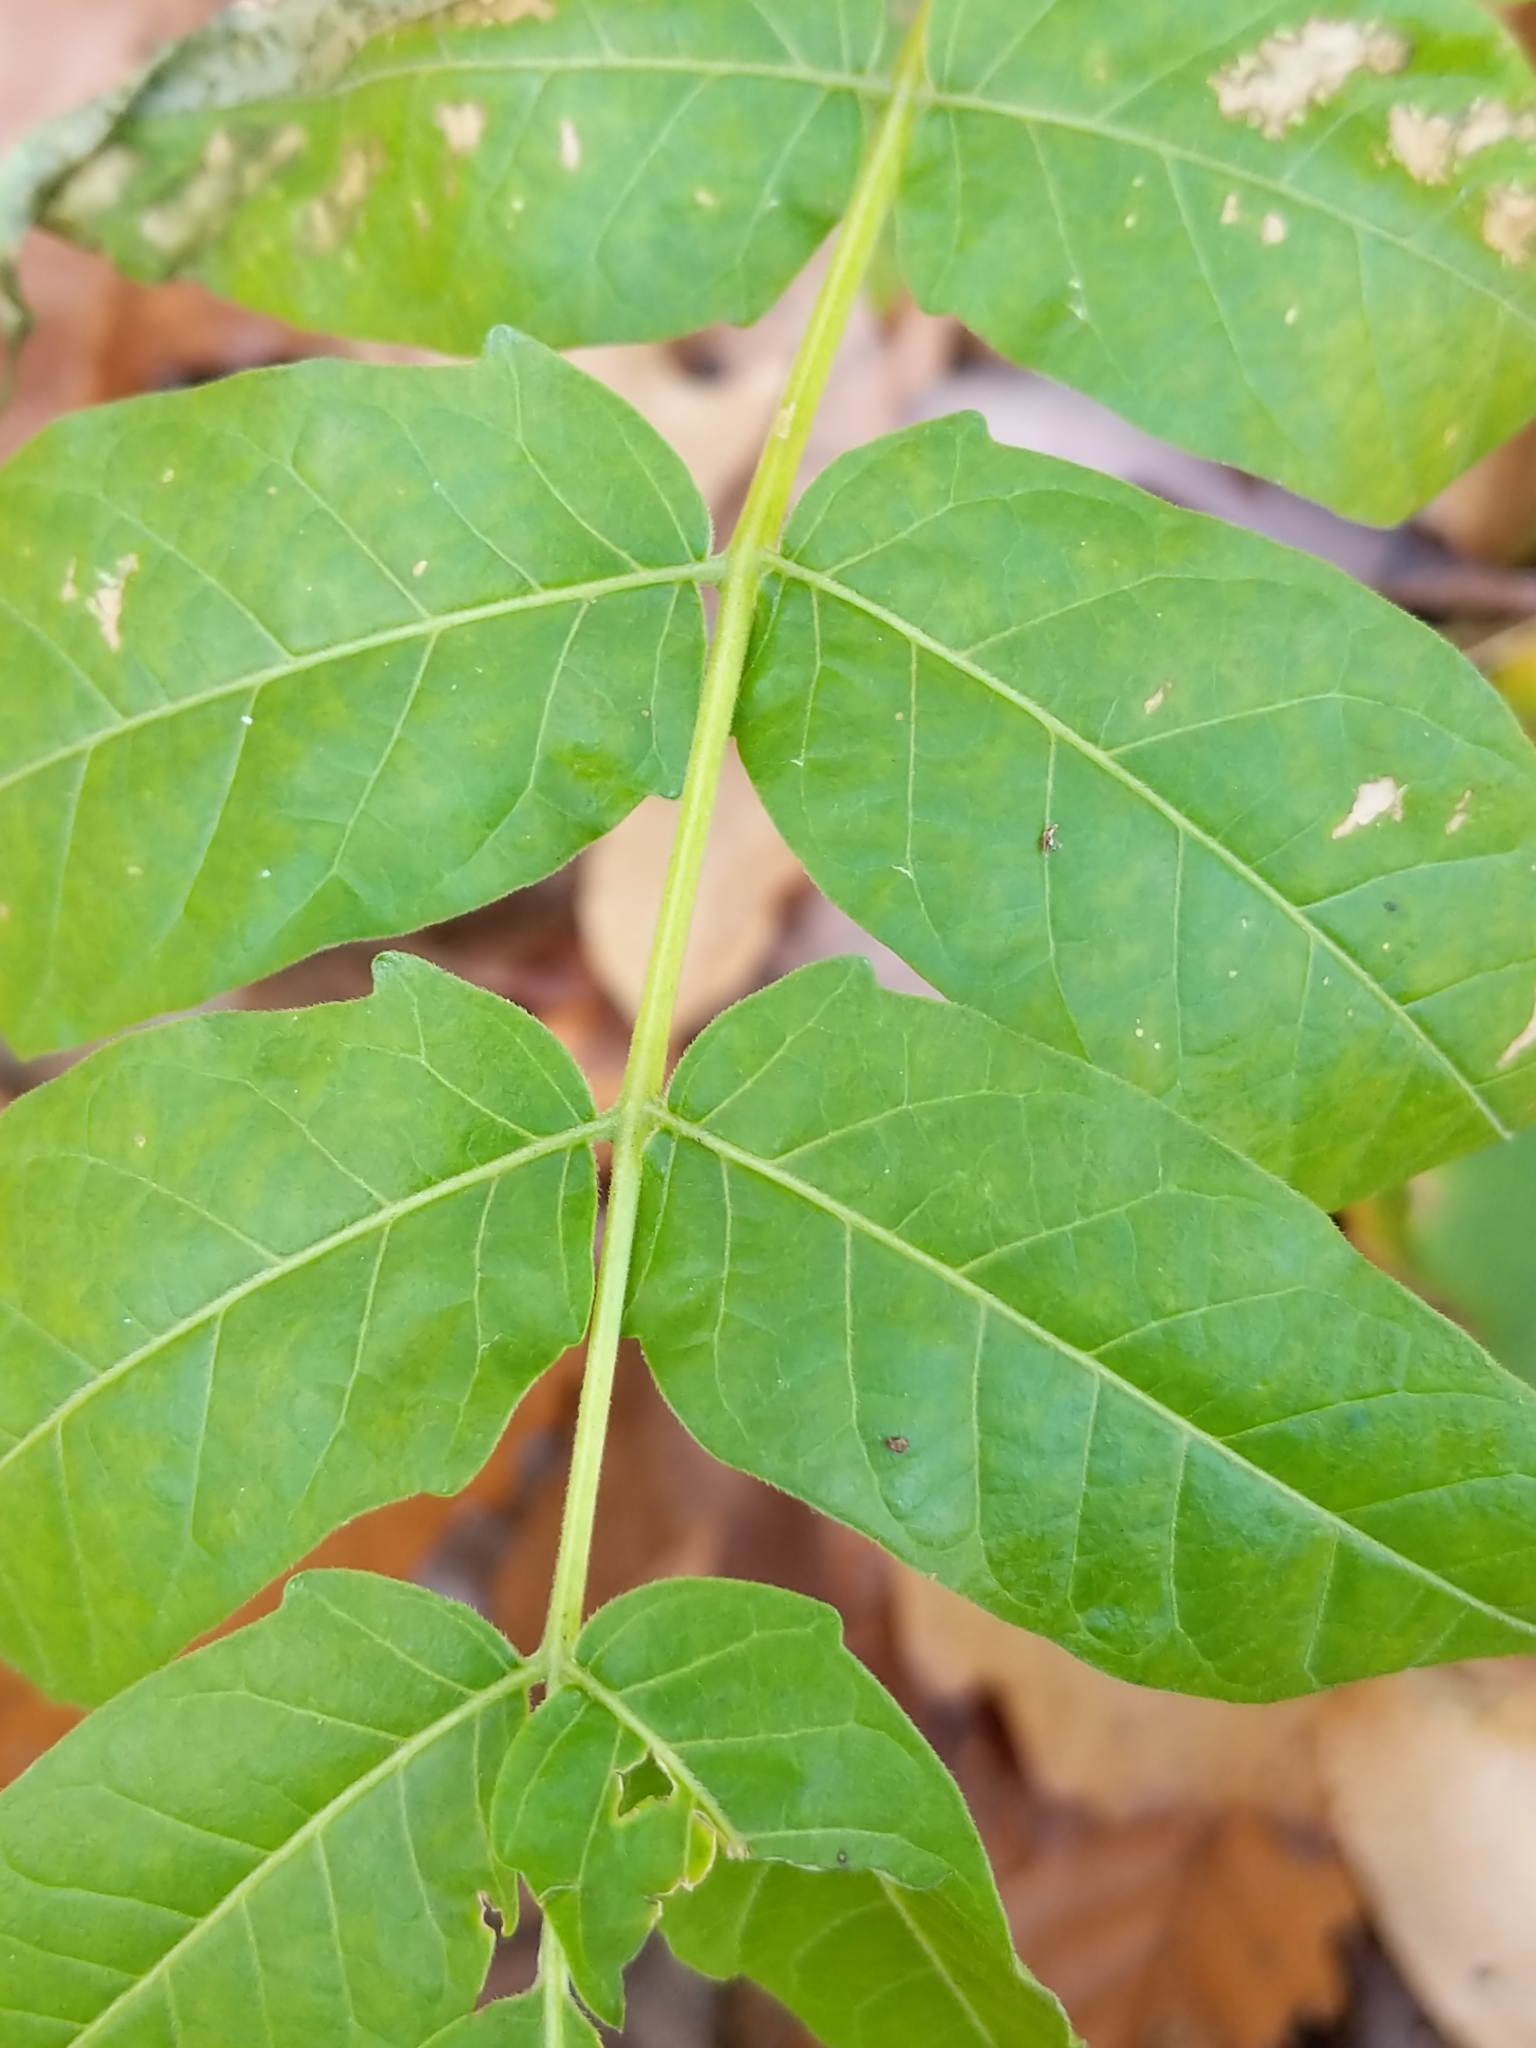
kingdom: Plantae
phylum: Tracheophyta
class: Magnoliopsida
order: Sapindales
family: Simaroubaceae
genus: Ailanthus
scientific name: Ailanthus altissima
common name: Tree-of-heaven
